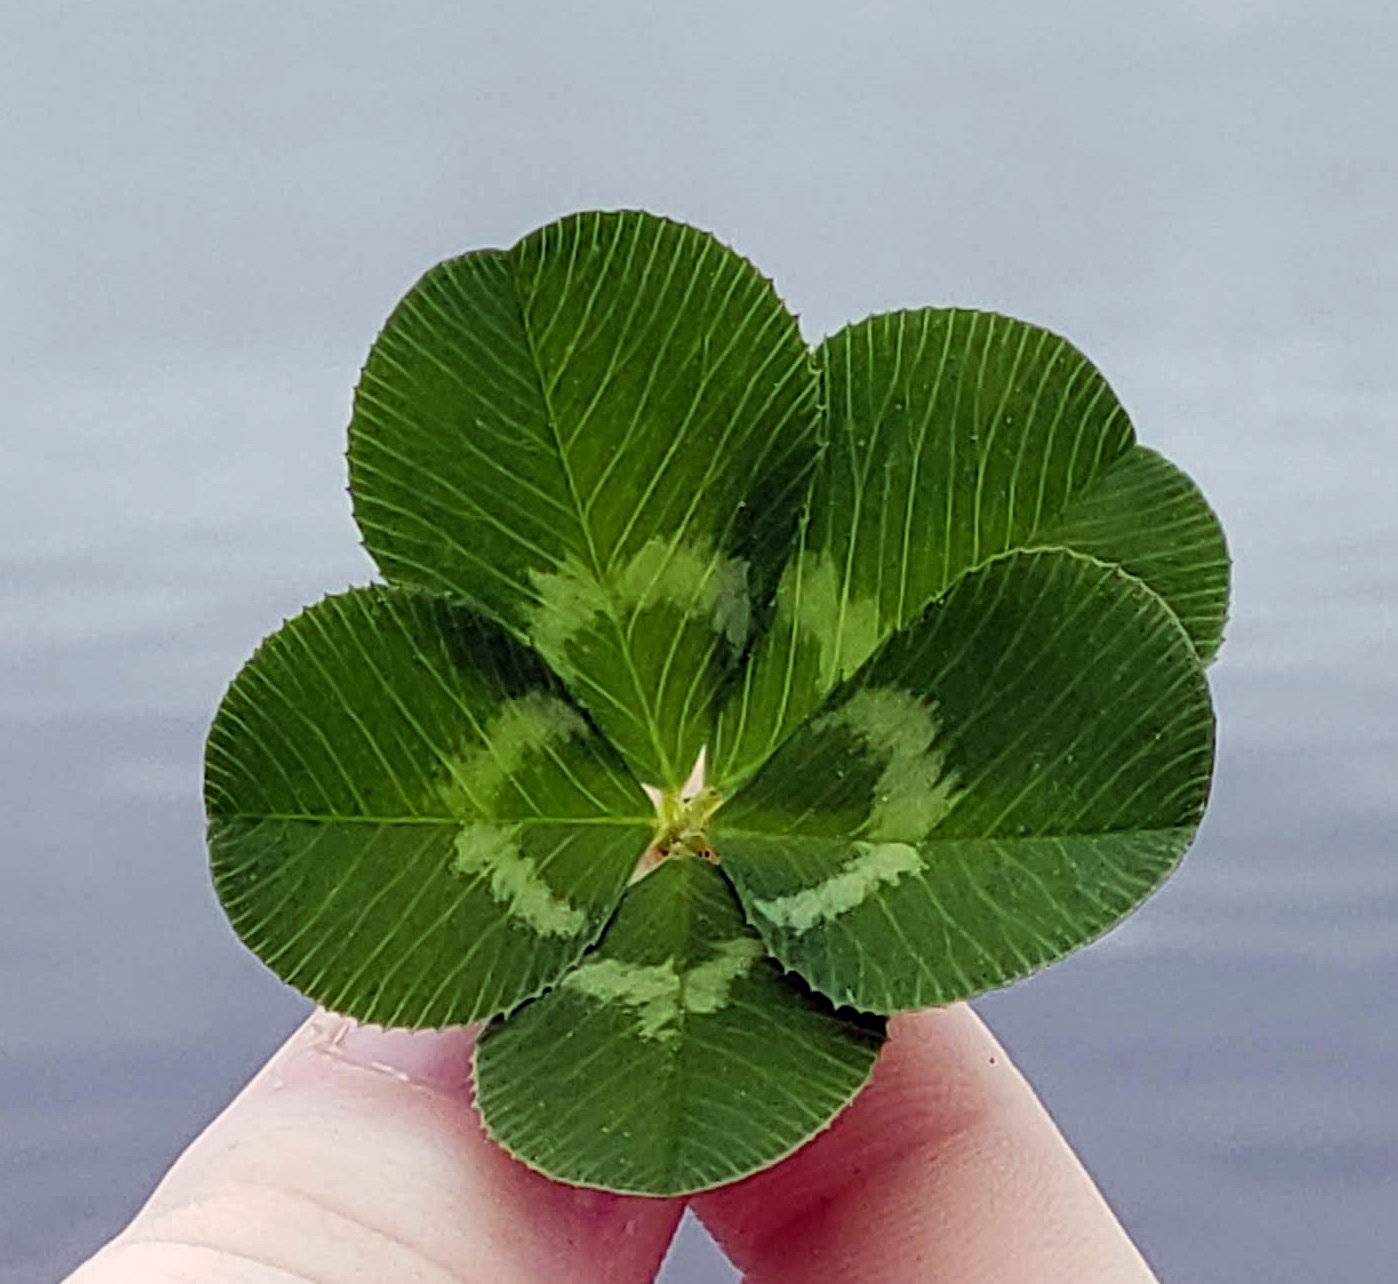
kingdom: Plantae
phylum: Tracheophyta
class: Magnoliopsida
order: Fabales
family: Fabaceae
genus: Trifolium
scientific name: Trifolium repens
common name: White clover
